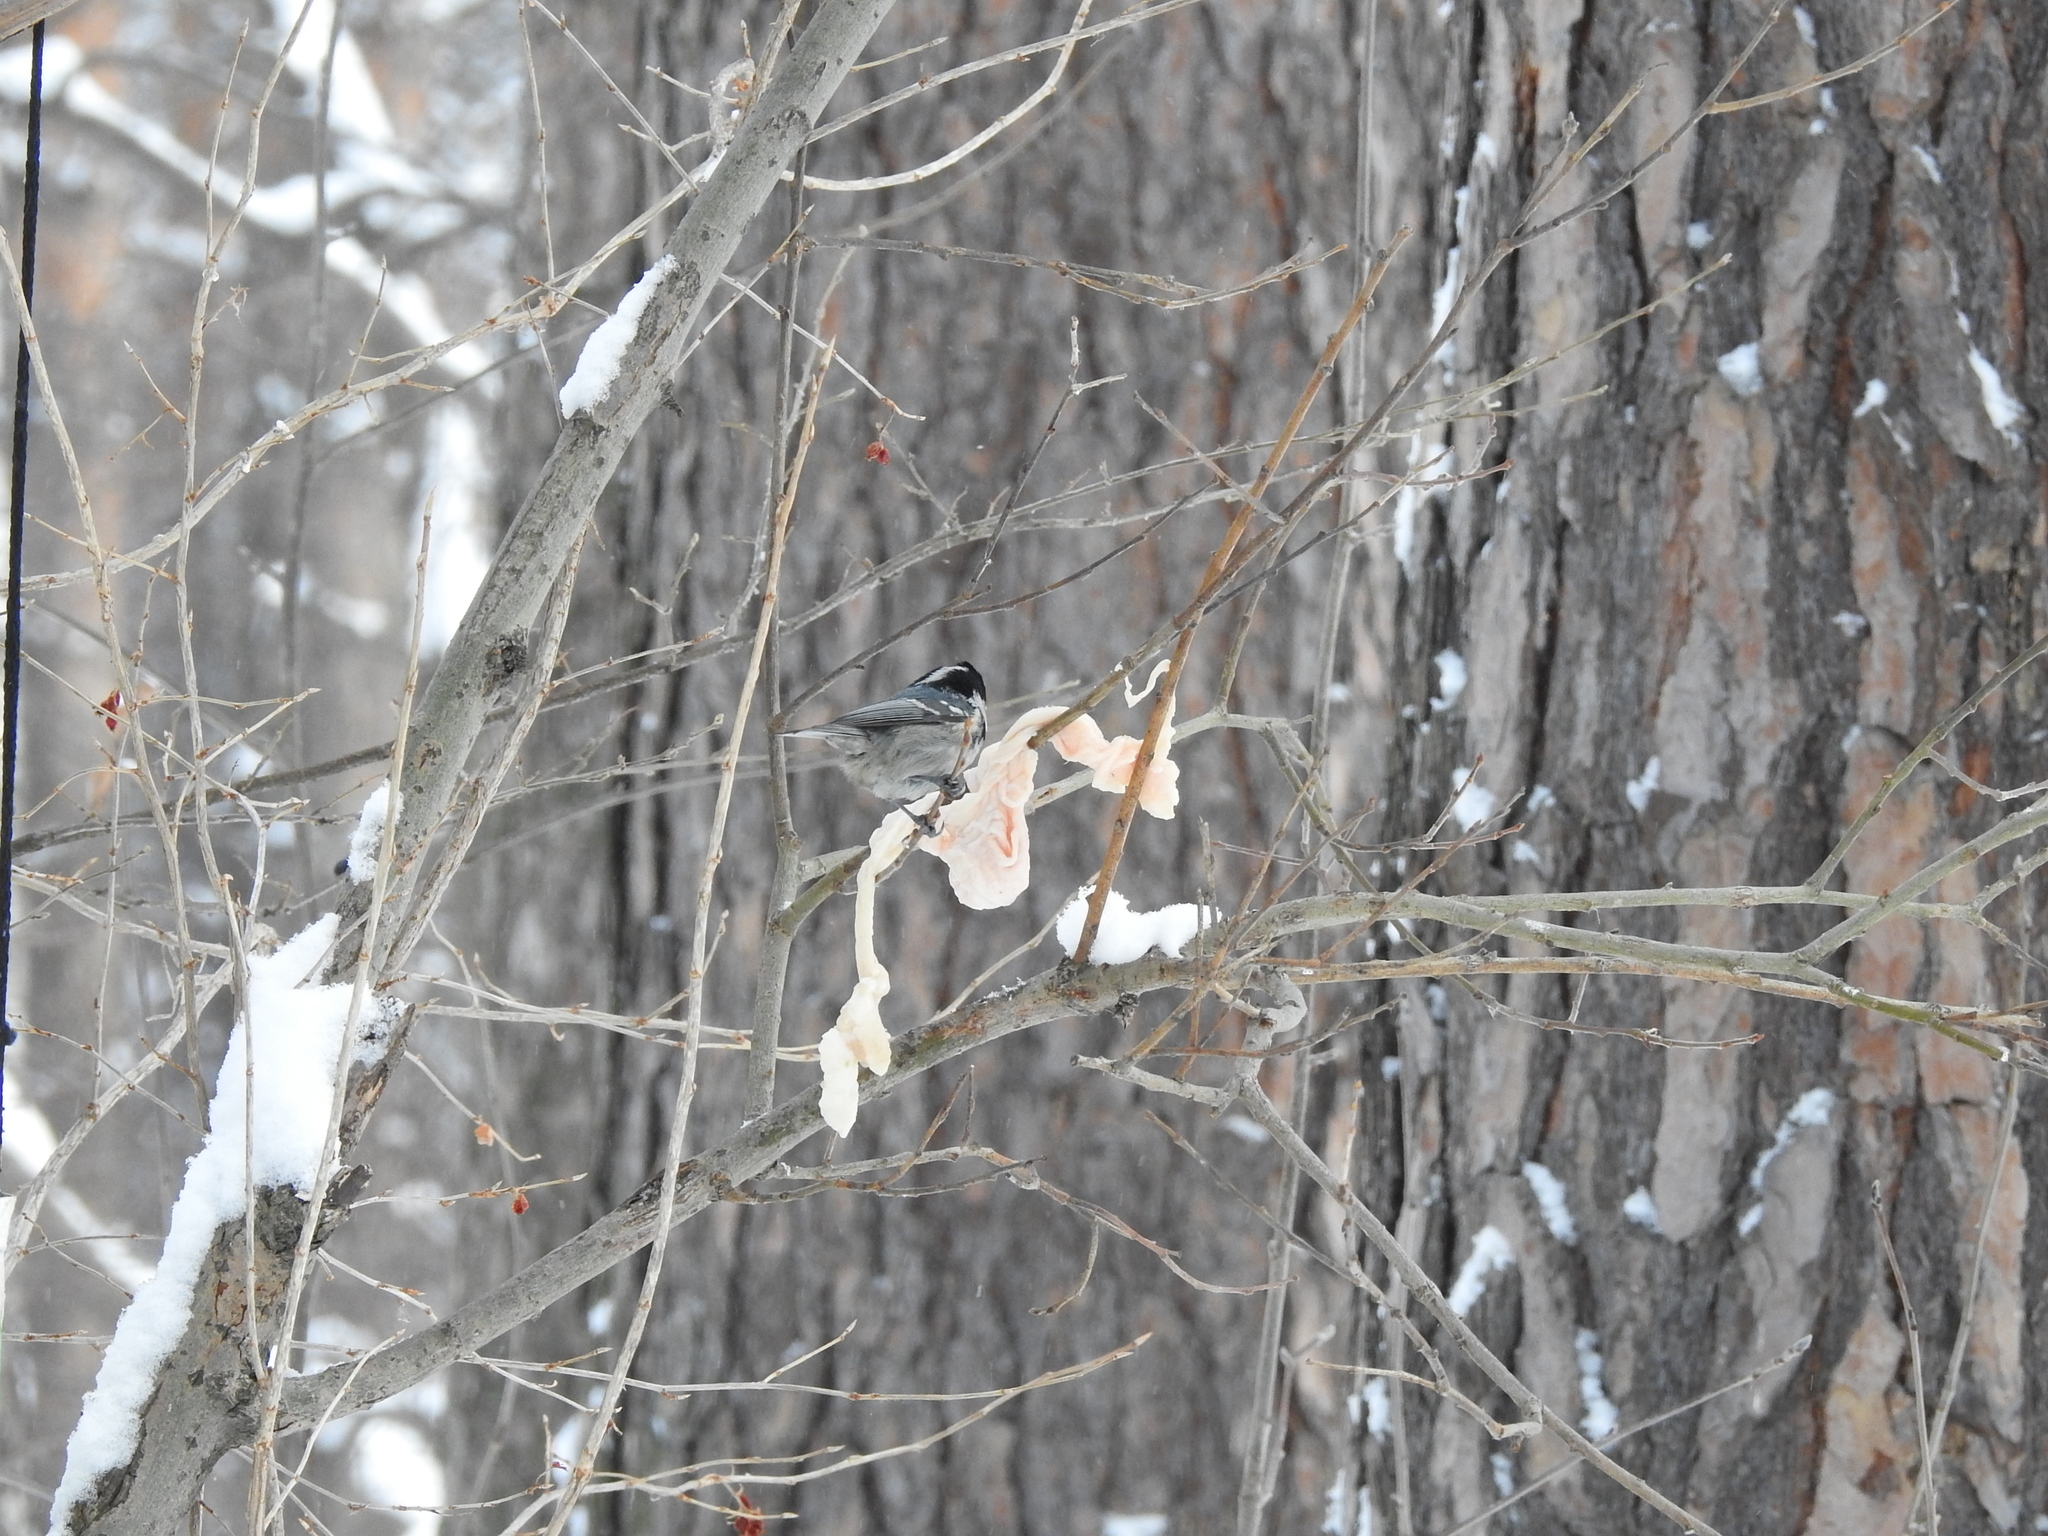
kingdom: Animalia
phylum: Chordata
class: Aves
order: Passeriformes
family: Paridae
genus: Periparus
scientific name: Periparus ater
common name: Coal tit
